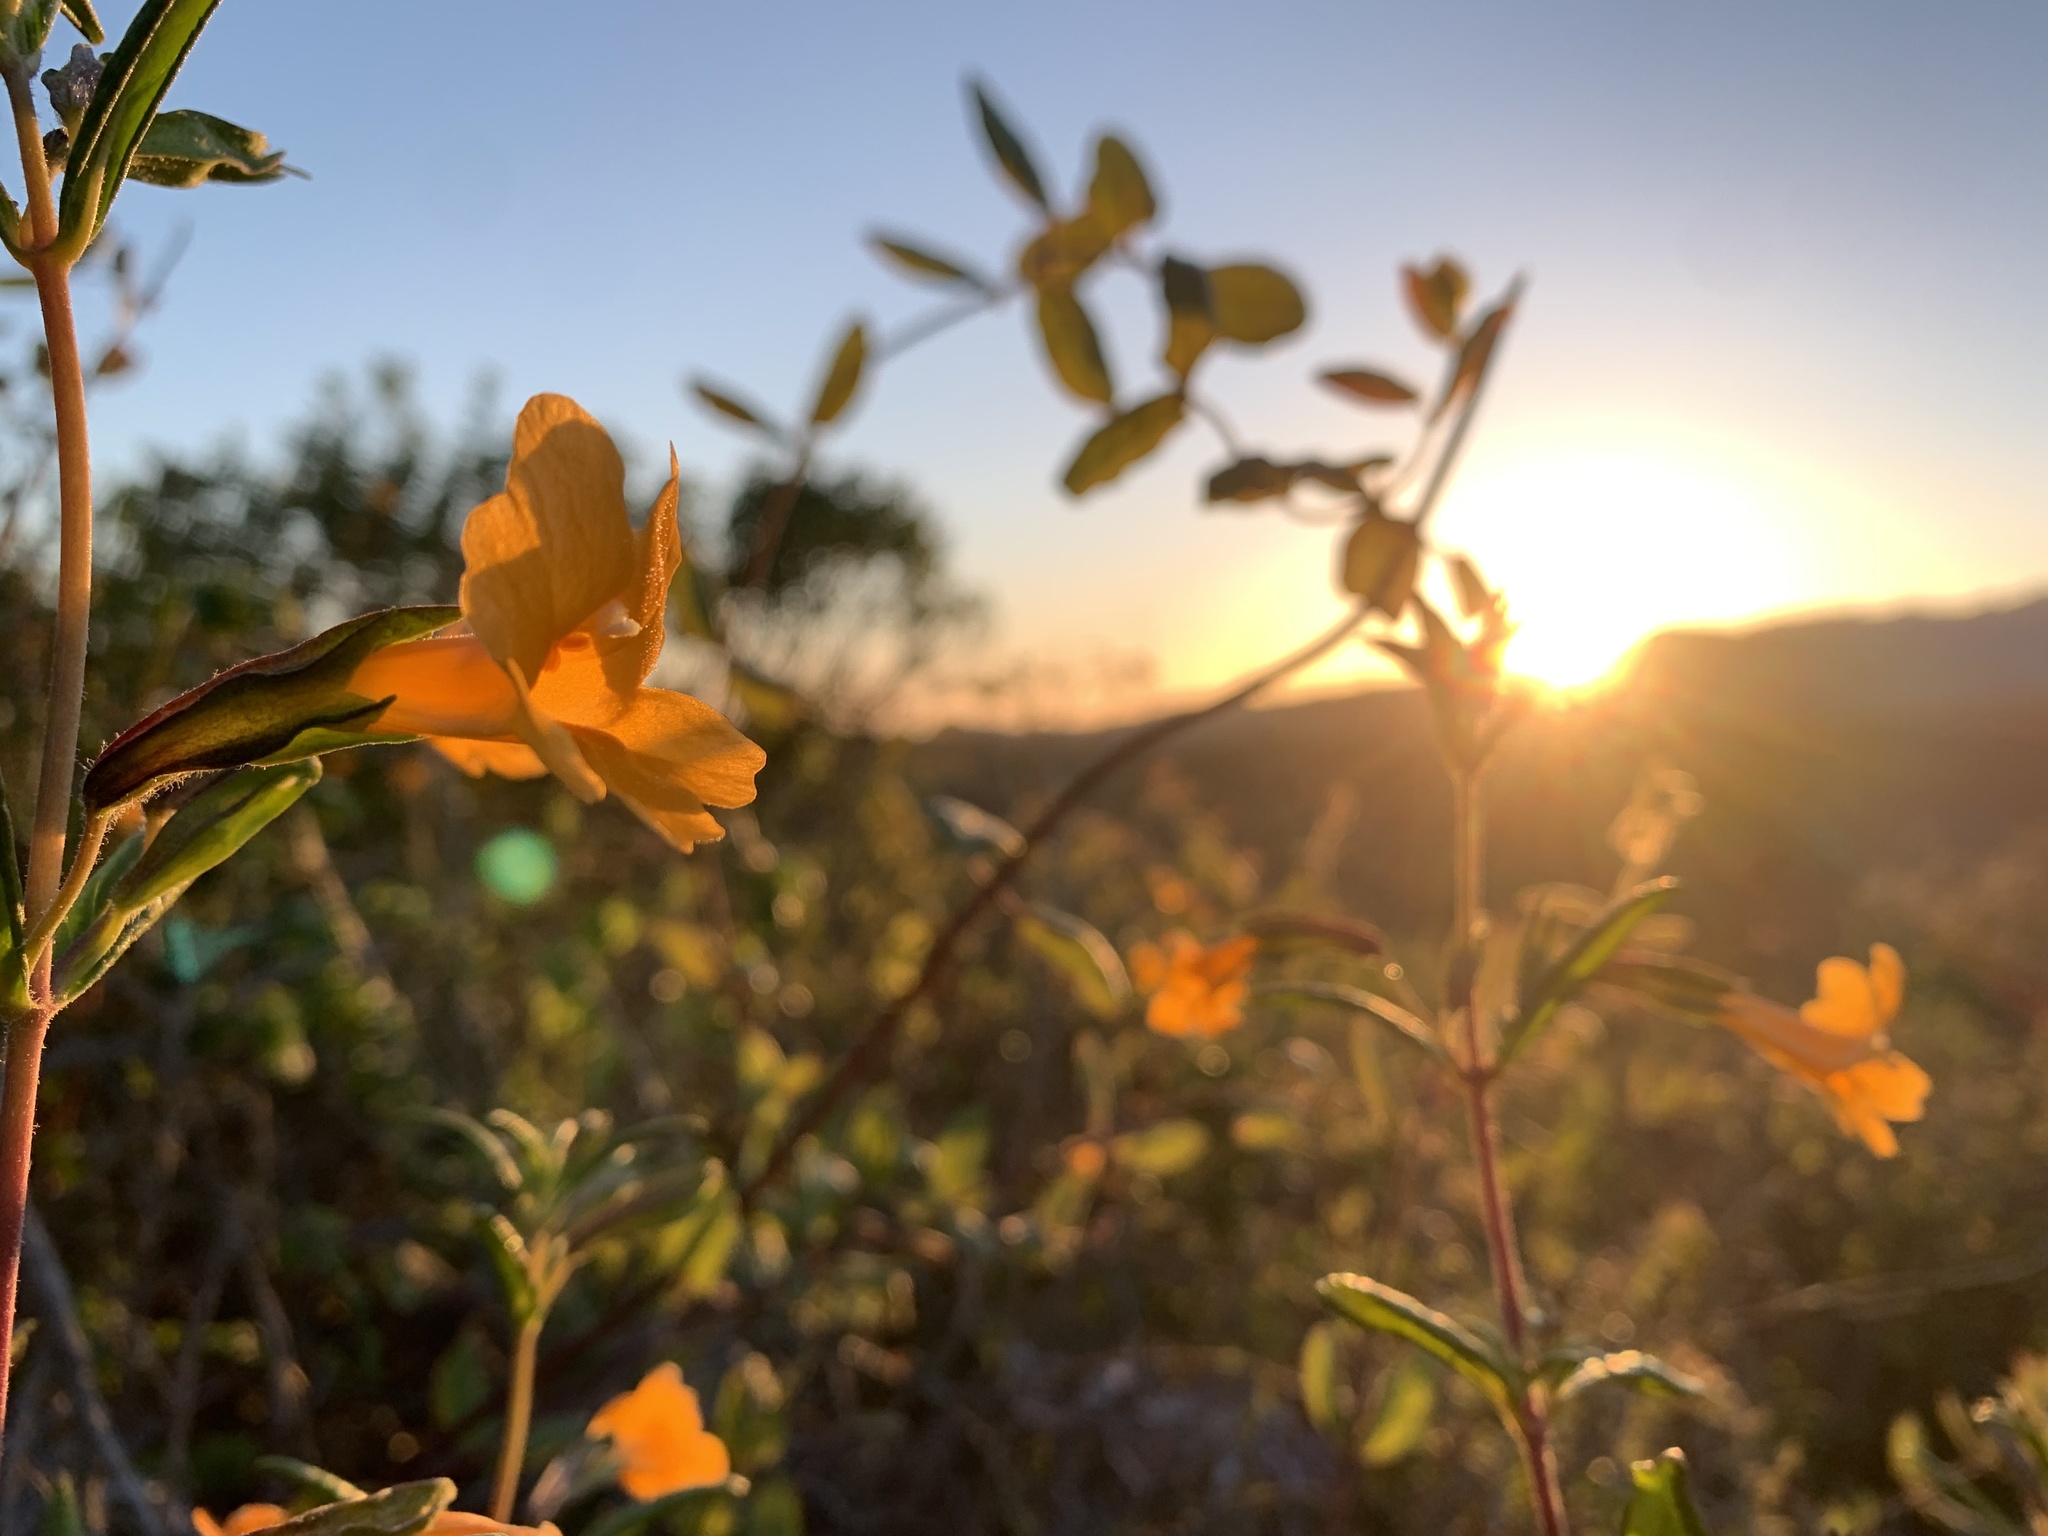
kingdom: Plantae
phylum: Tracheophyta
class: Magnoliopsida
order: Lamiales
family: Phrymaceae
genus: Diplacus
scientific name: Diplacus aurantiacus
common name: Bush monkey-flower
